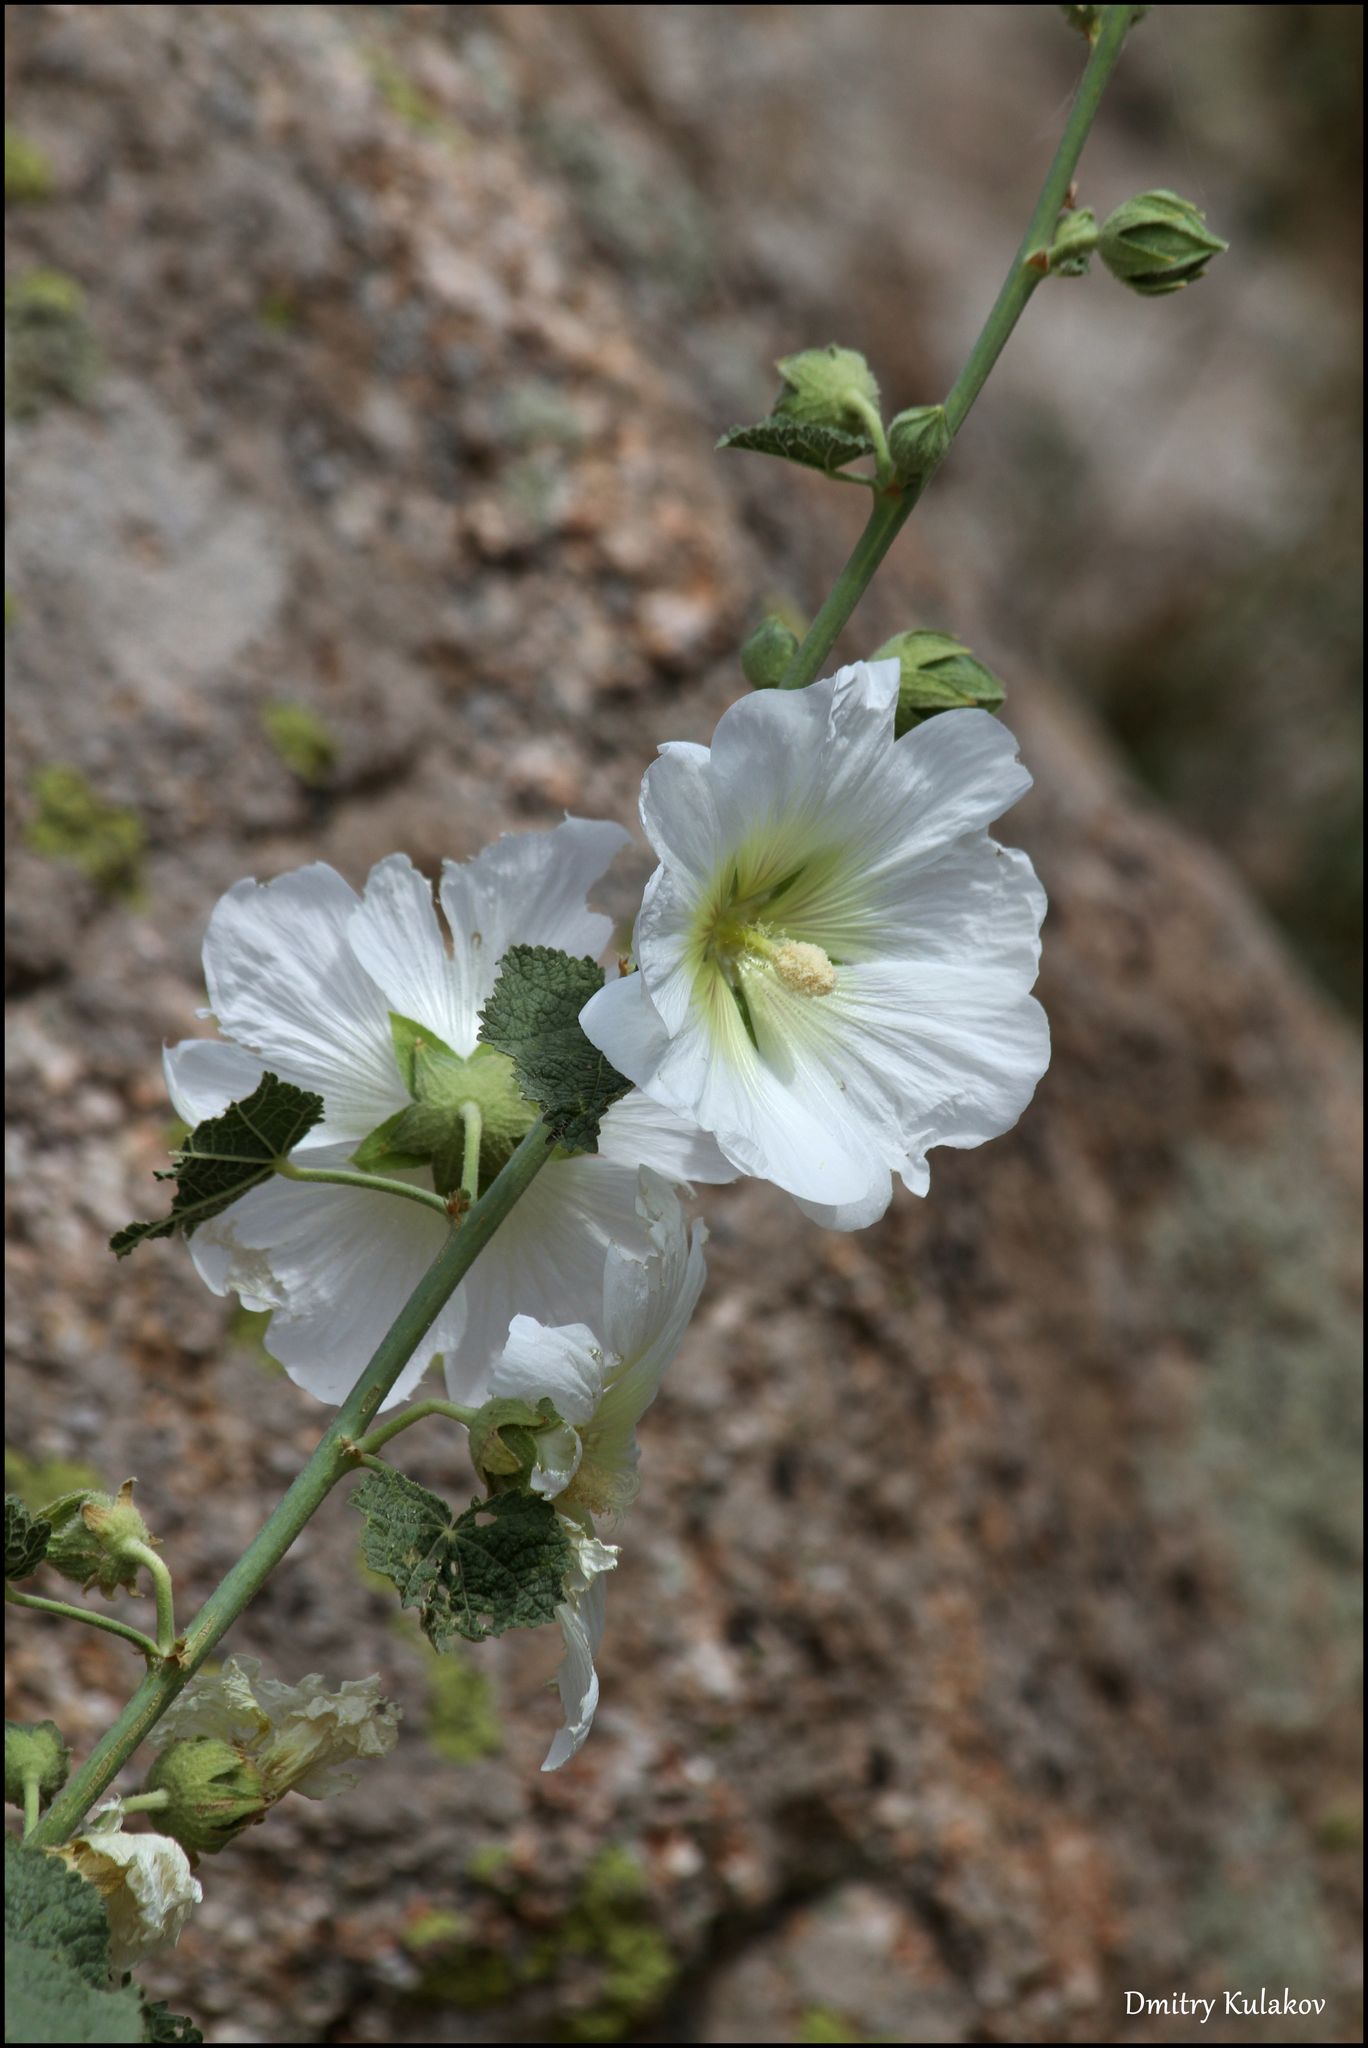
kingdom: Plantae
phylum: Tracheophyta
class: Magnoliopsida
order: Malvales
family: Malvaceae
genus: Alcea
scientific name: Alcea nudiflora
